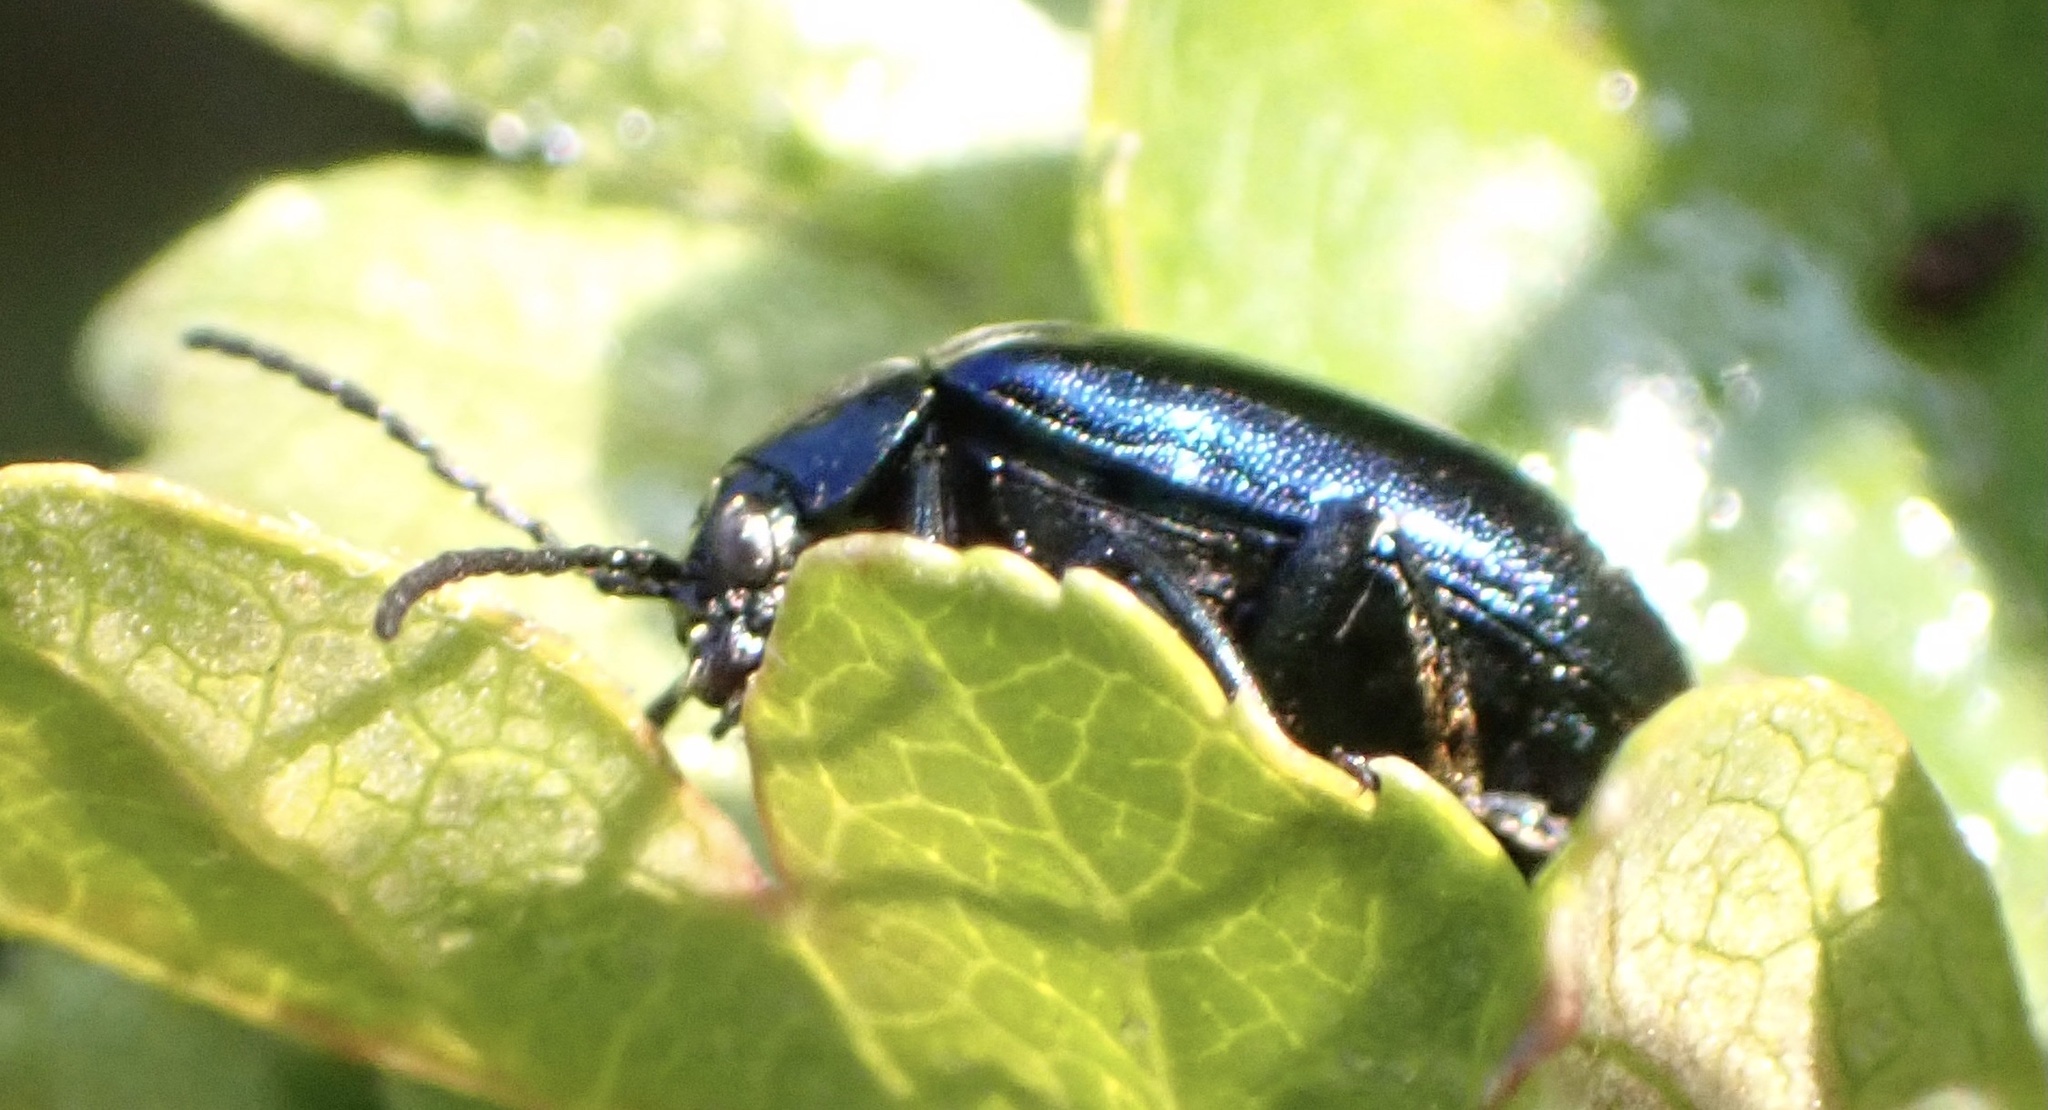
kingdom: Animalia
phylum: Arthropoda
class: Insecta
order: Coleoptera
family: Chrysomelidae
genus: Agelastica
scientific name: Agelastica alni
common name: Alder leaf beetle
